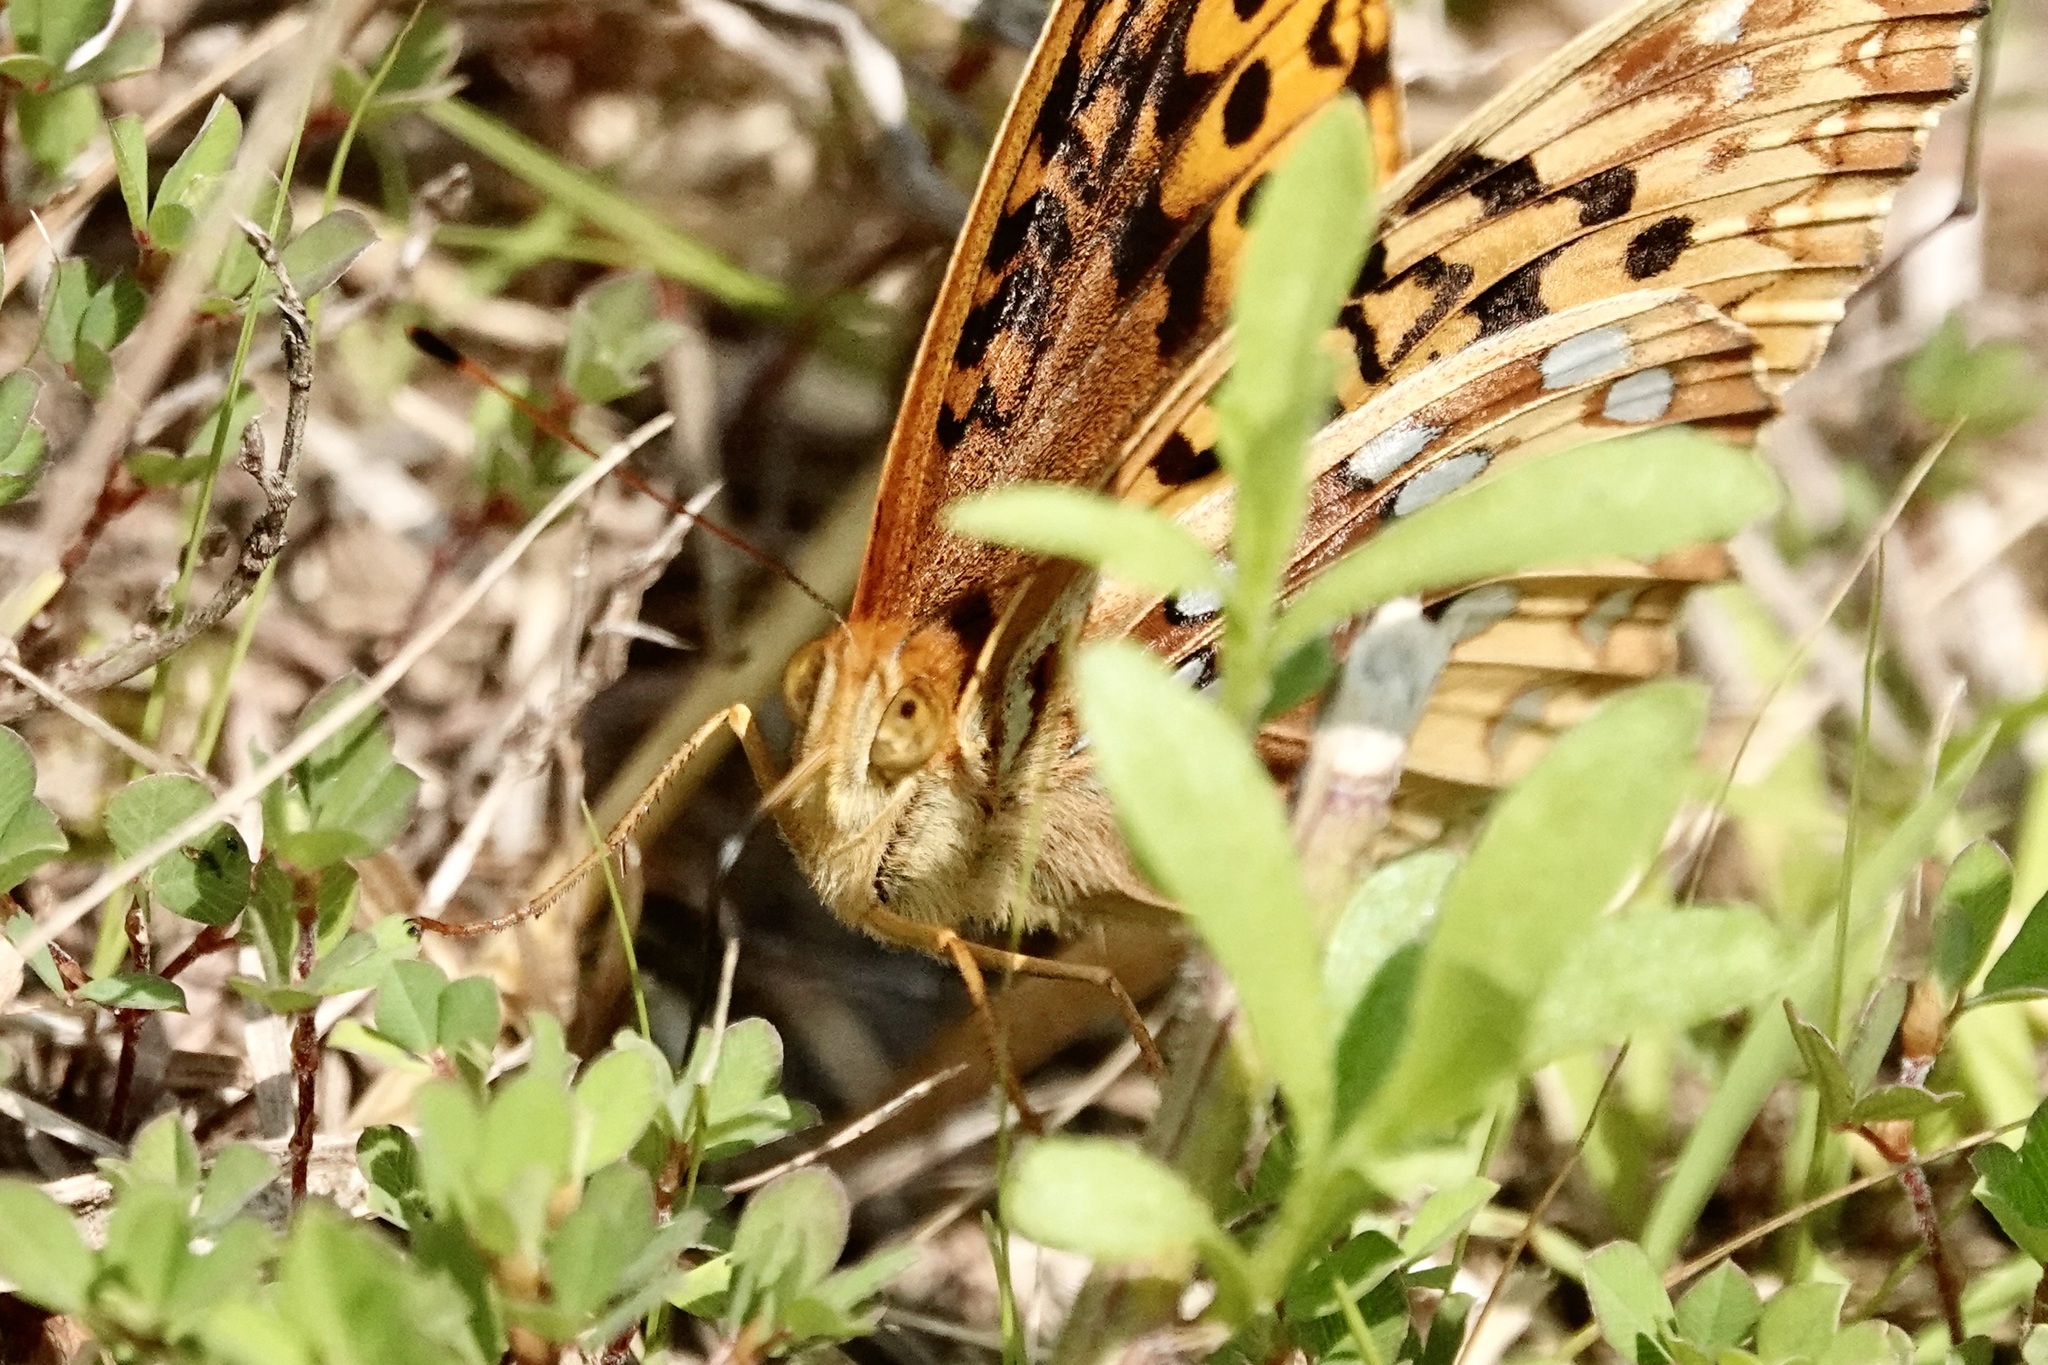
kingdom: Animalia
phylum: Arthropoda
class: Insecta
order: Lepidoptera
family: Nymphalidae
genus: Speyeria
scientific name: Speyeria cybele
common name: Great spangled fritillary
